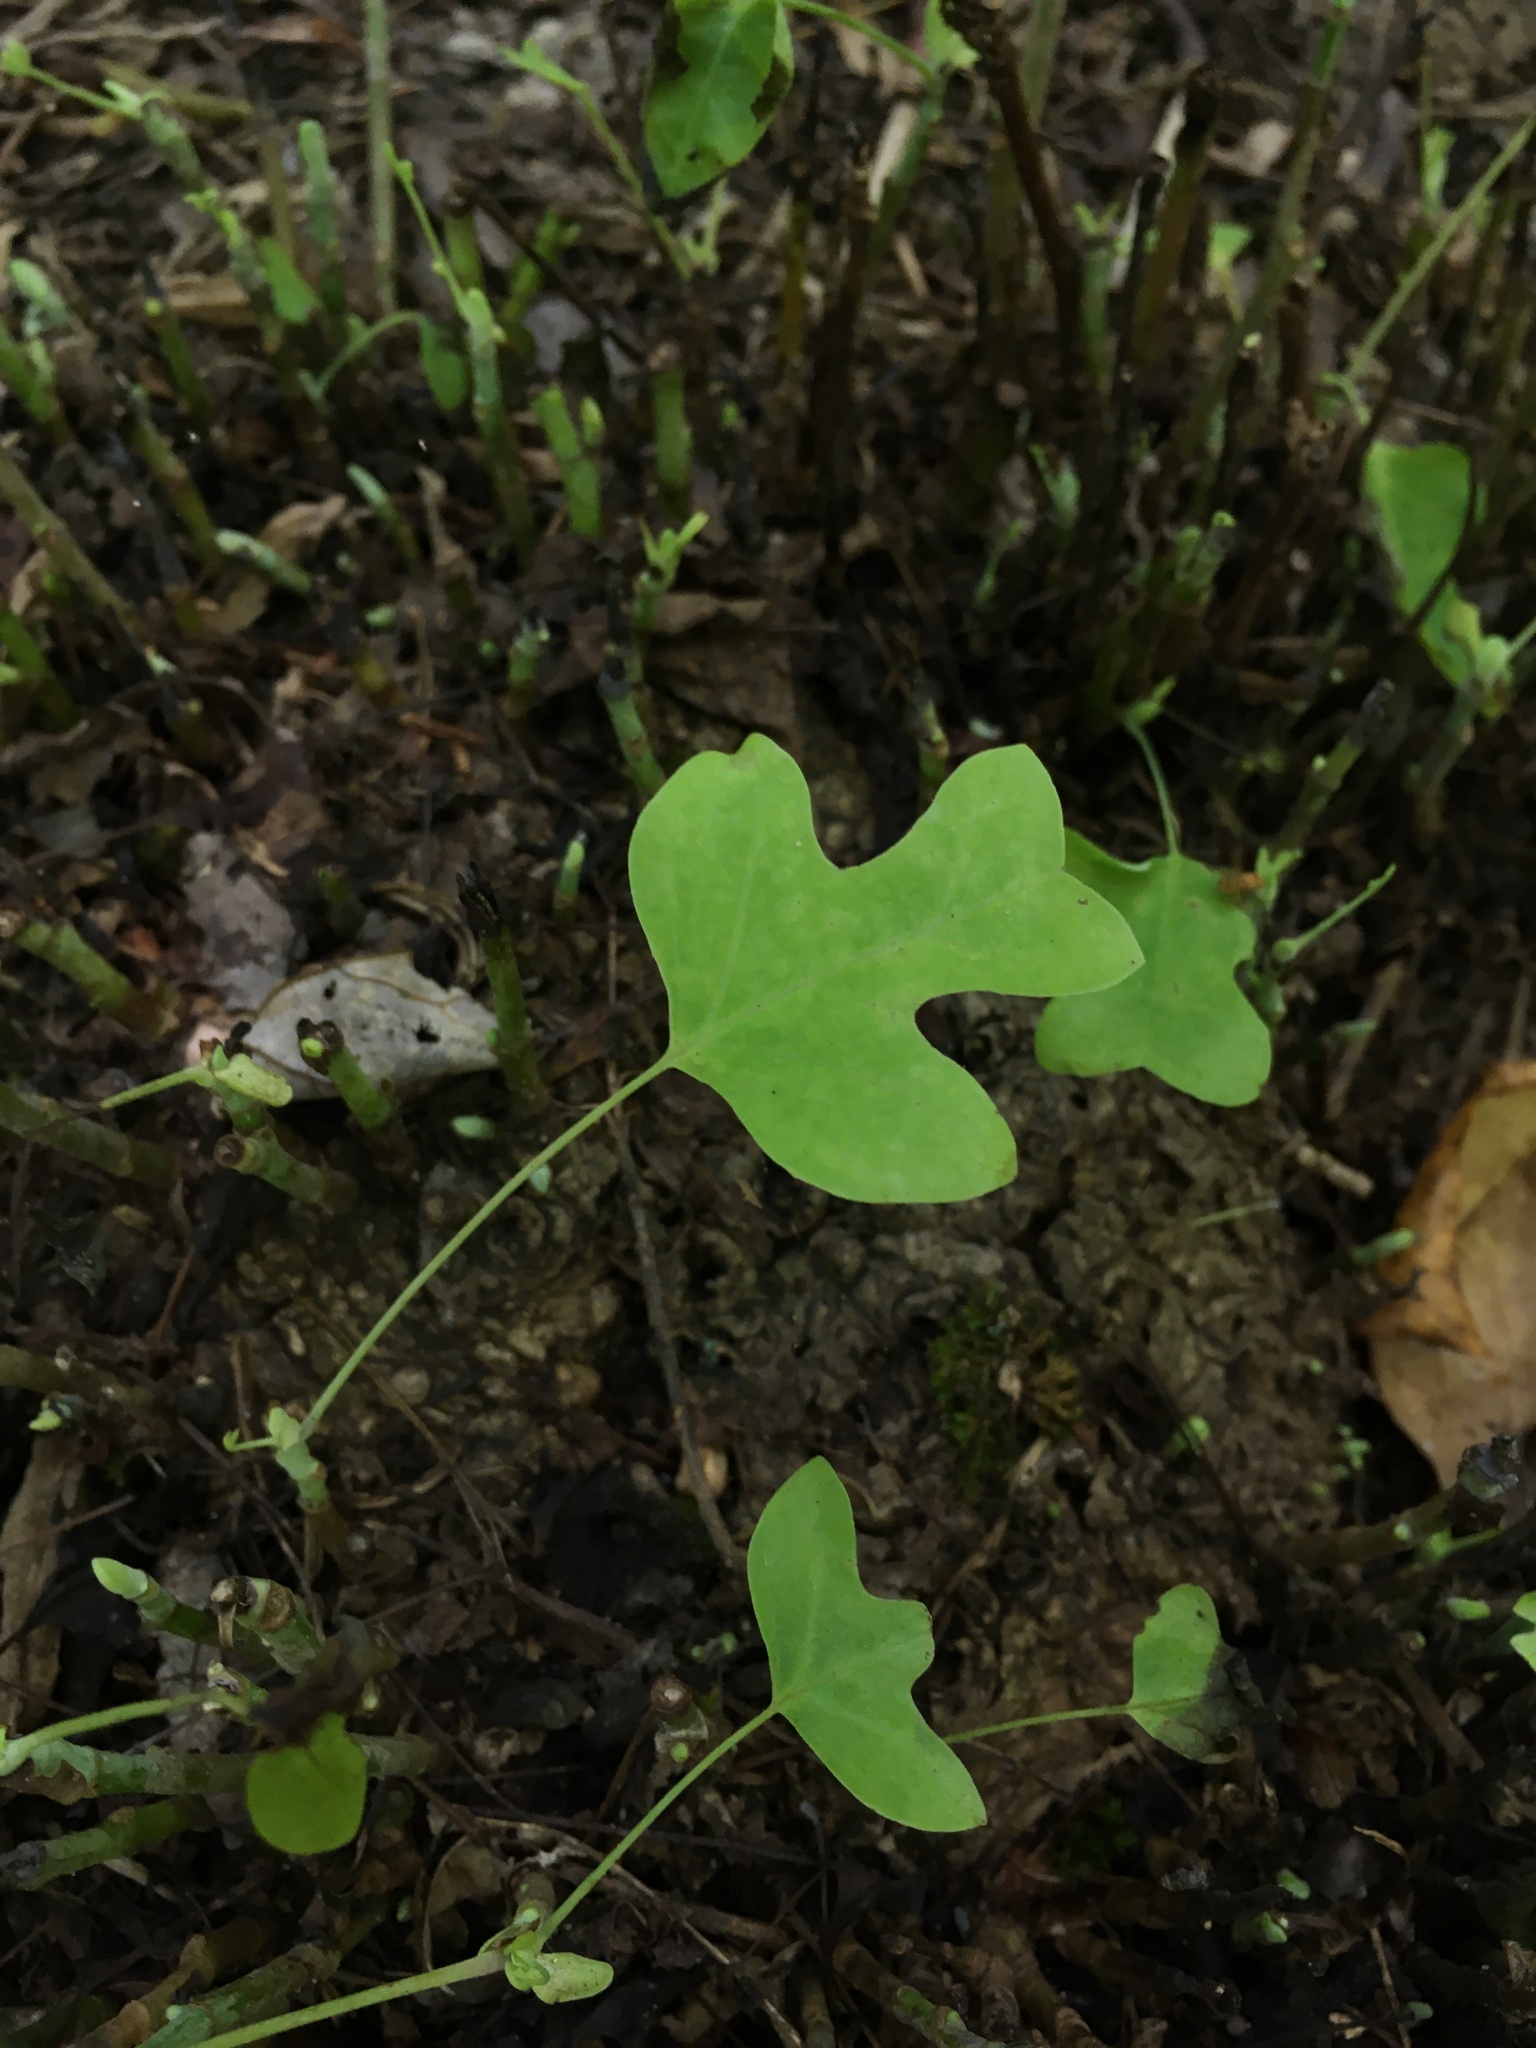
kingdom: Plantae
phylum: Tracheophyta
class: Magnoliopsida
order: Magnoliales
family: Magnoliaceae
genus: Liriodendron
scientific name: Liriodendron tulipifera
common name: Tulip tree
